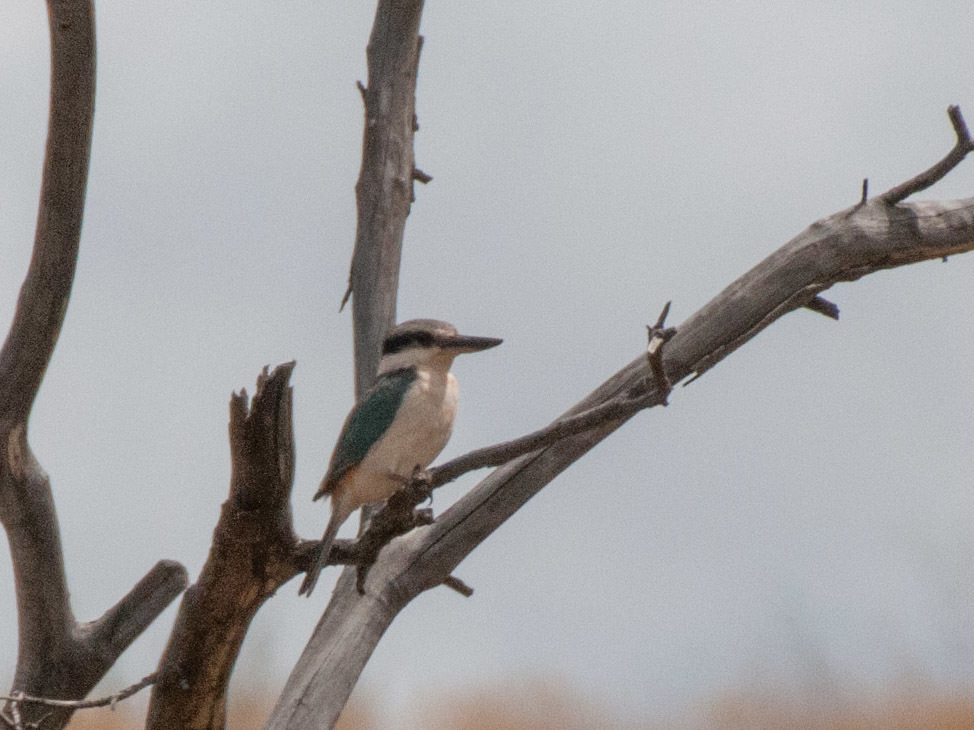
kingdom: Animalia
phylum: Chordata
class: Aves
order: Coraciiformes
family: Alcedinidae
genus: Todiramphus
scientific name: Todiramphus pyrrhopygius
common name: Red-backed kingfisher
